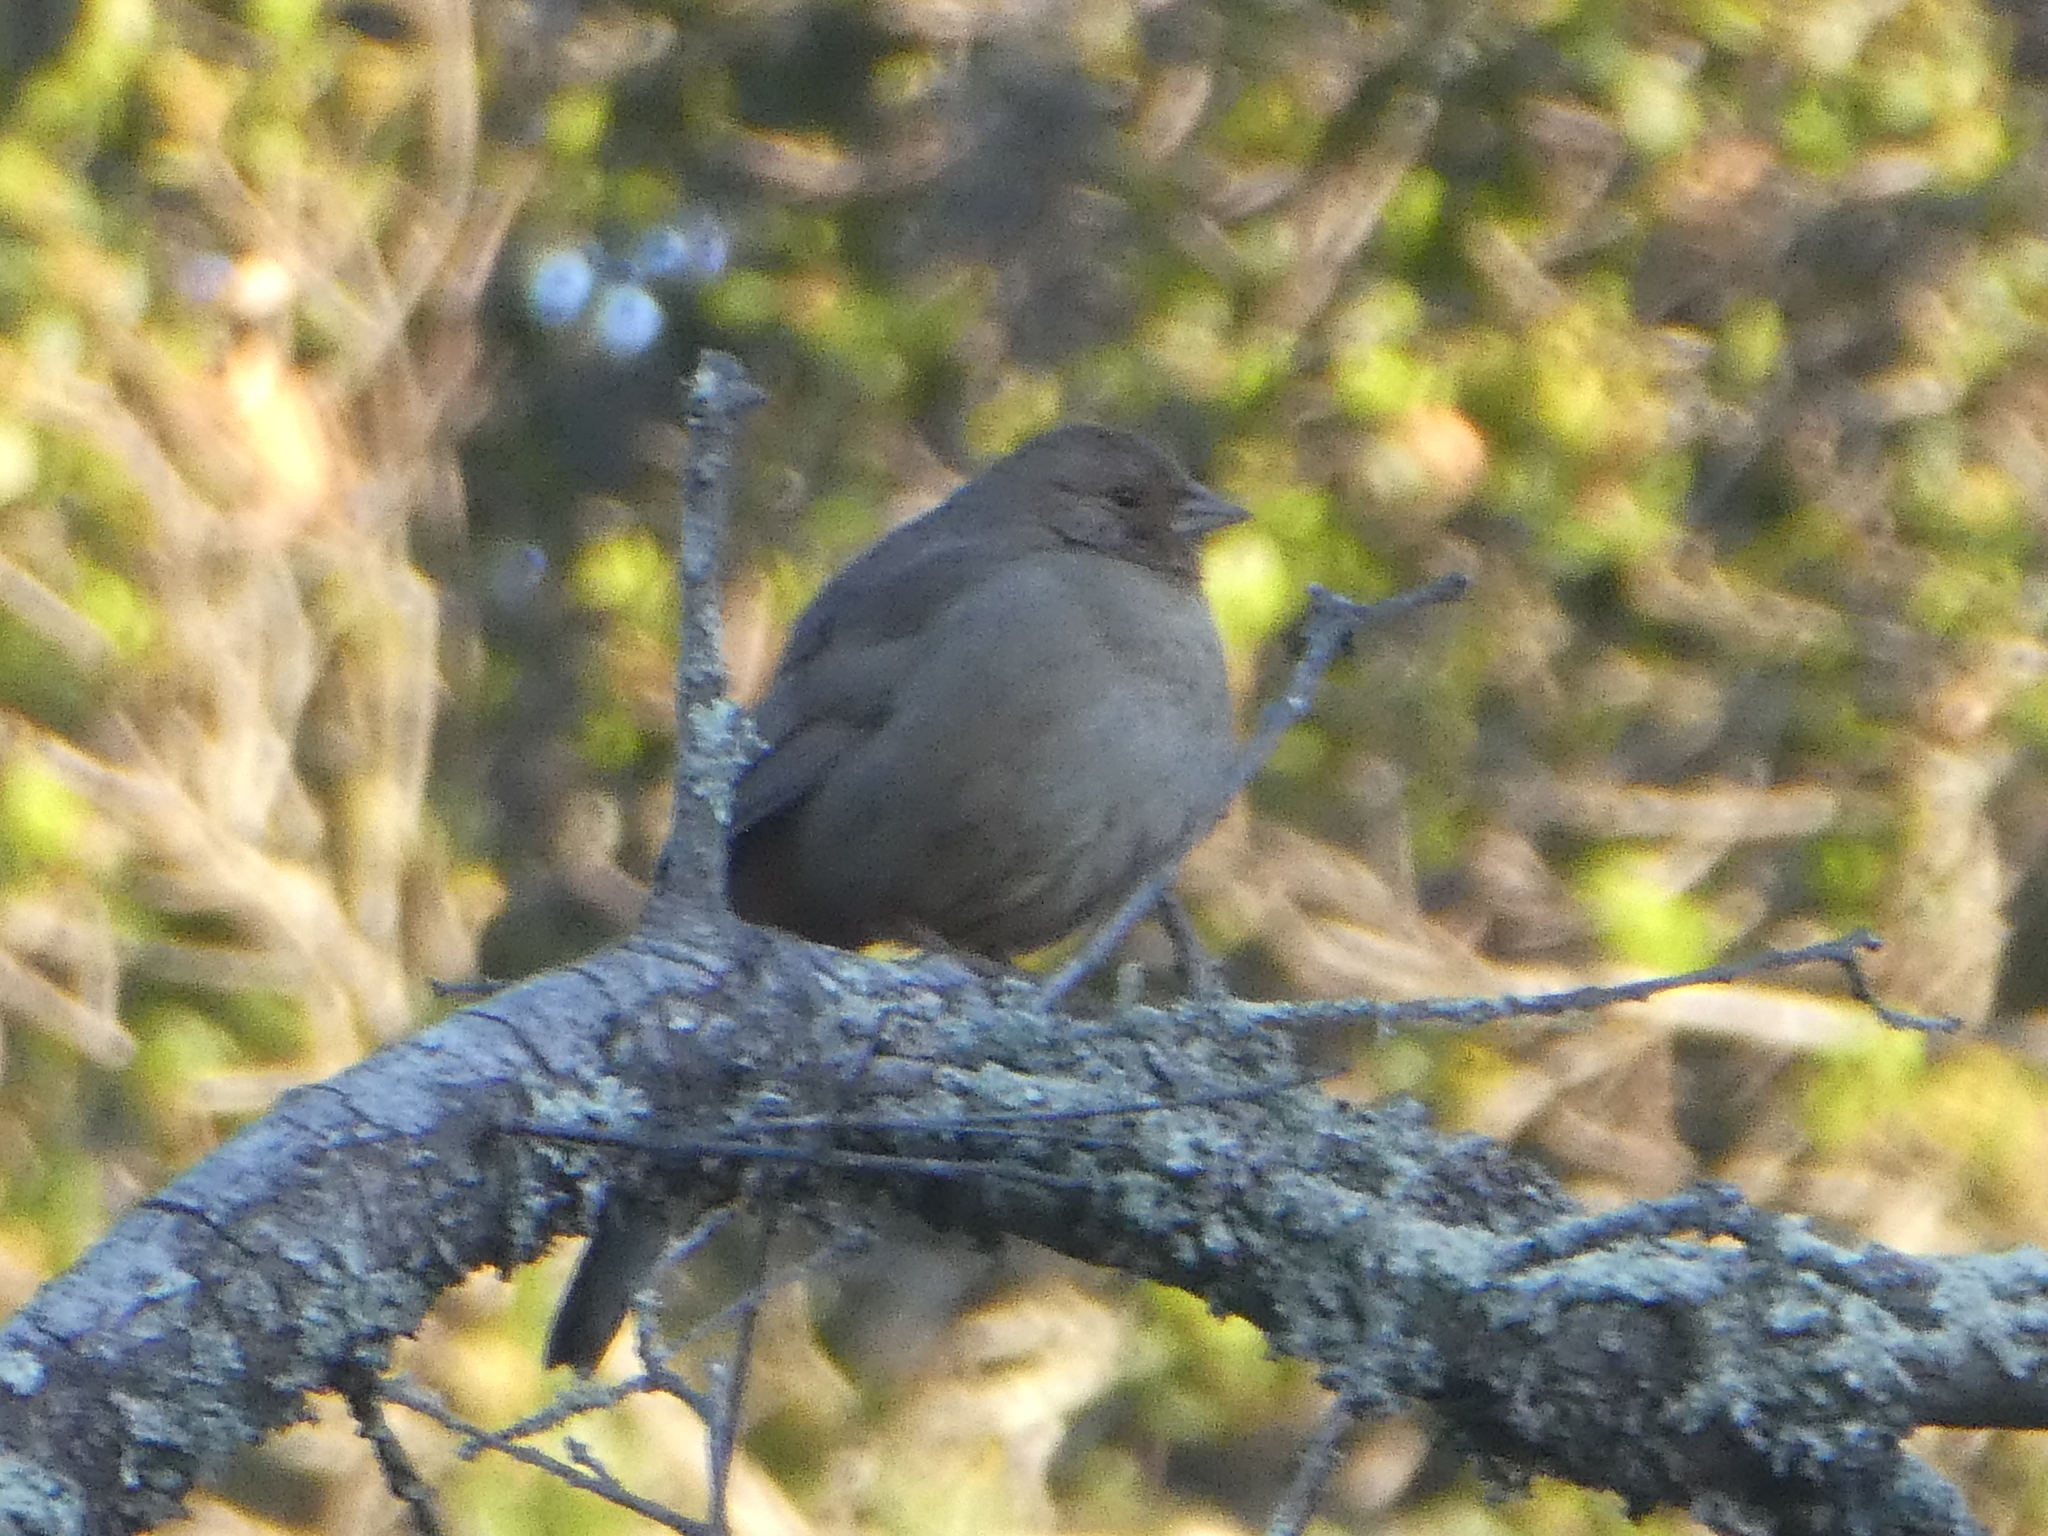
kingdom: Animalia
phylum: Chordata
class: Aves
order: Passeriformes
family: Passerellidae
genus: Melozone
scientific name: Melozone crissalis
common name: California towhee
